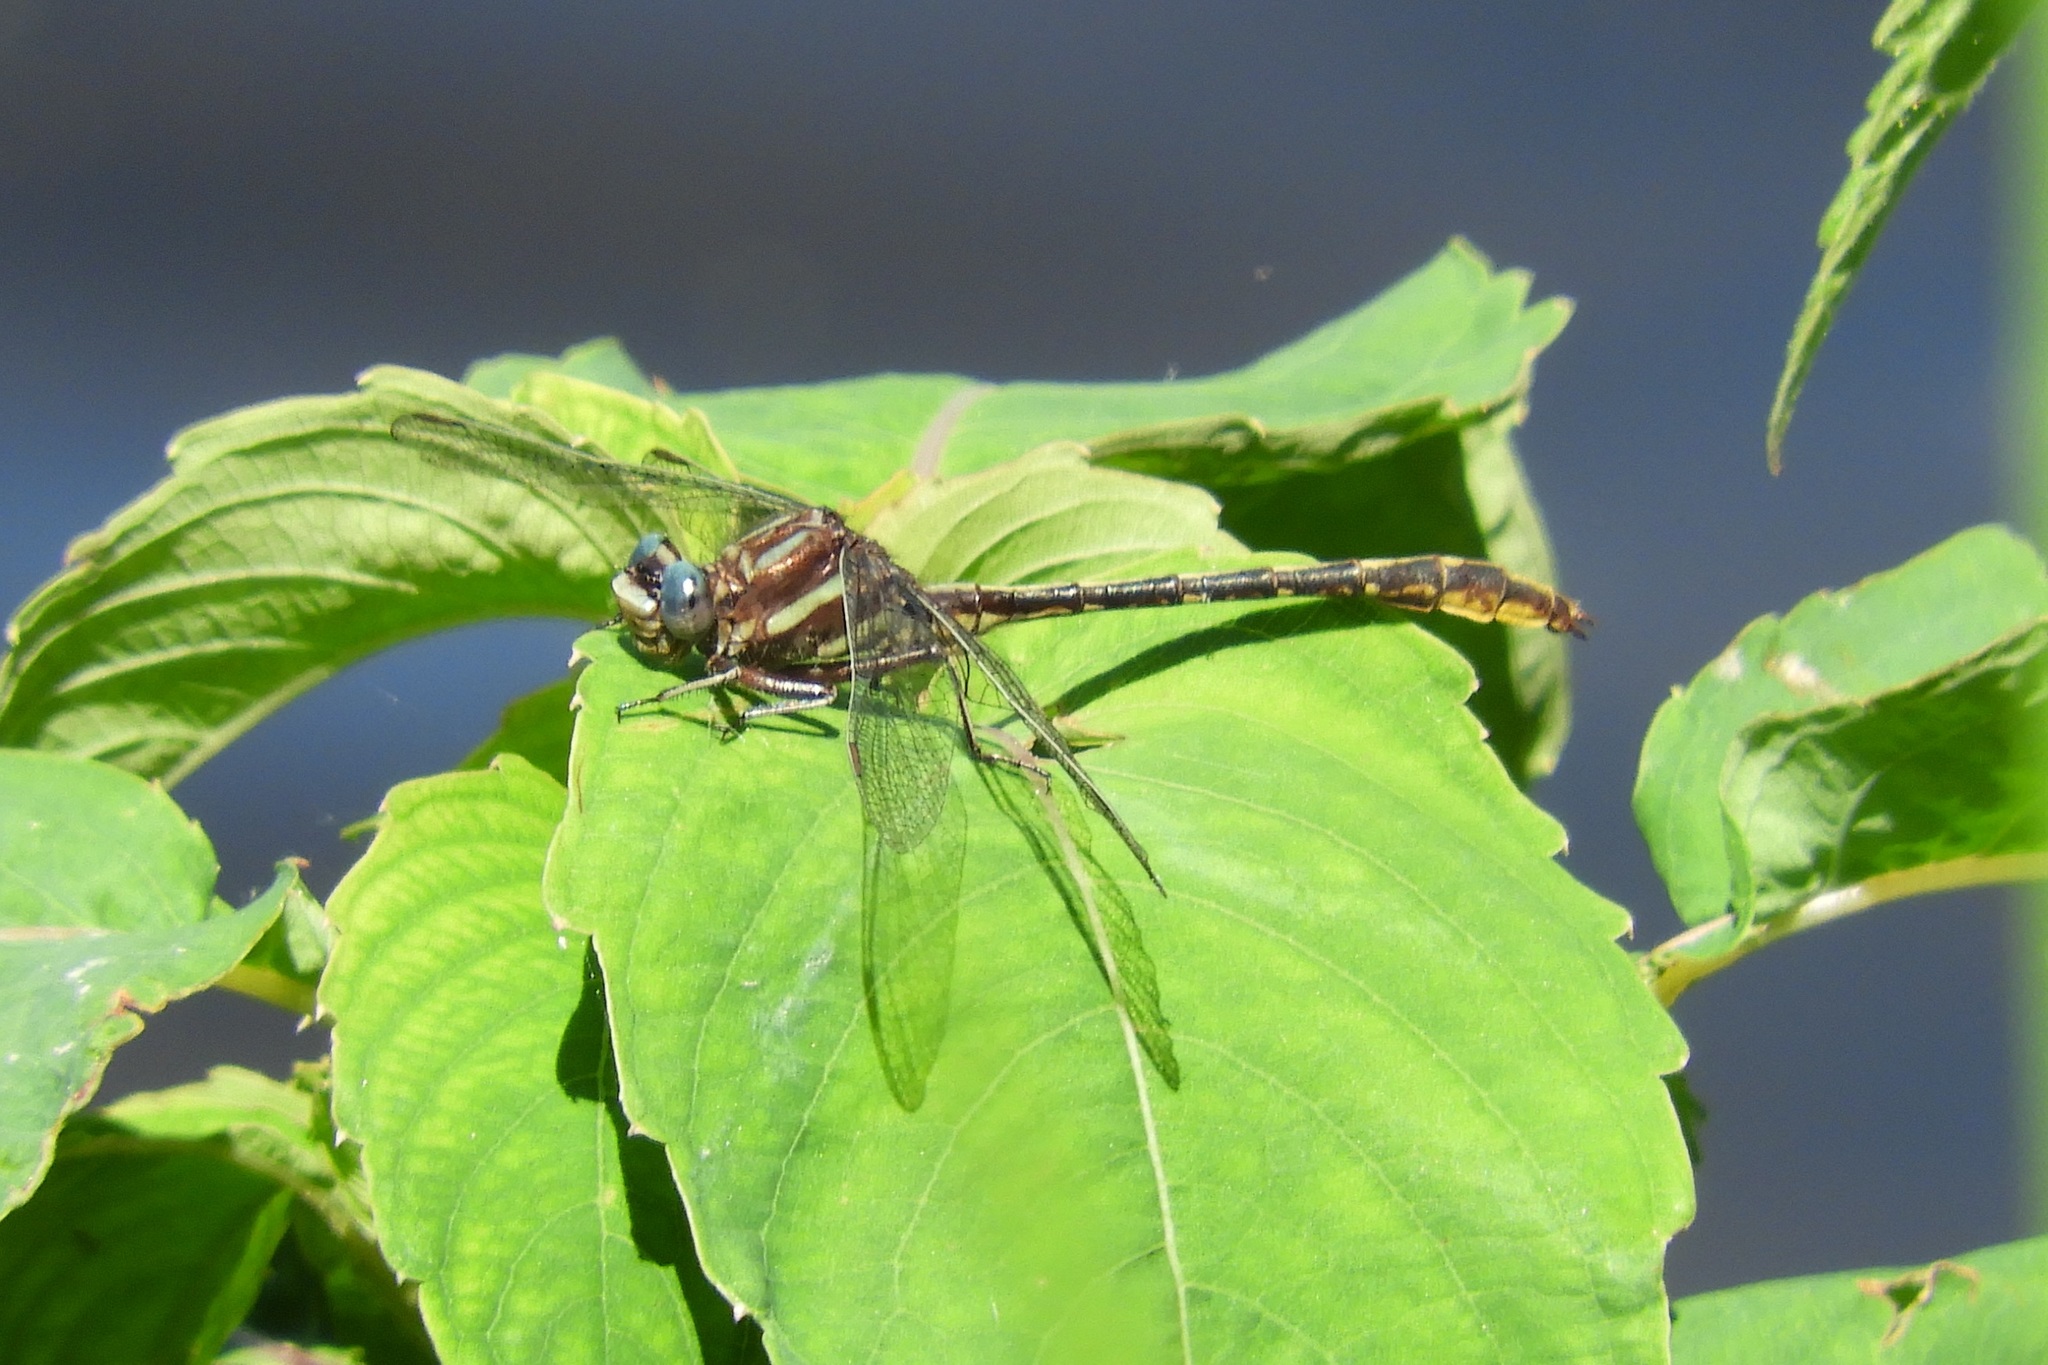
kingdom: Animalia
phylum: Arthropoda
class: Insecta
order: Odonata
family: Gomphidae
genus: Phanogomphus
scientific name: Phanogomphus exilis
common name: Lancet clubtail
